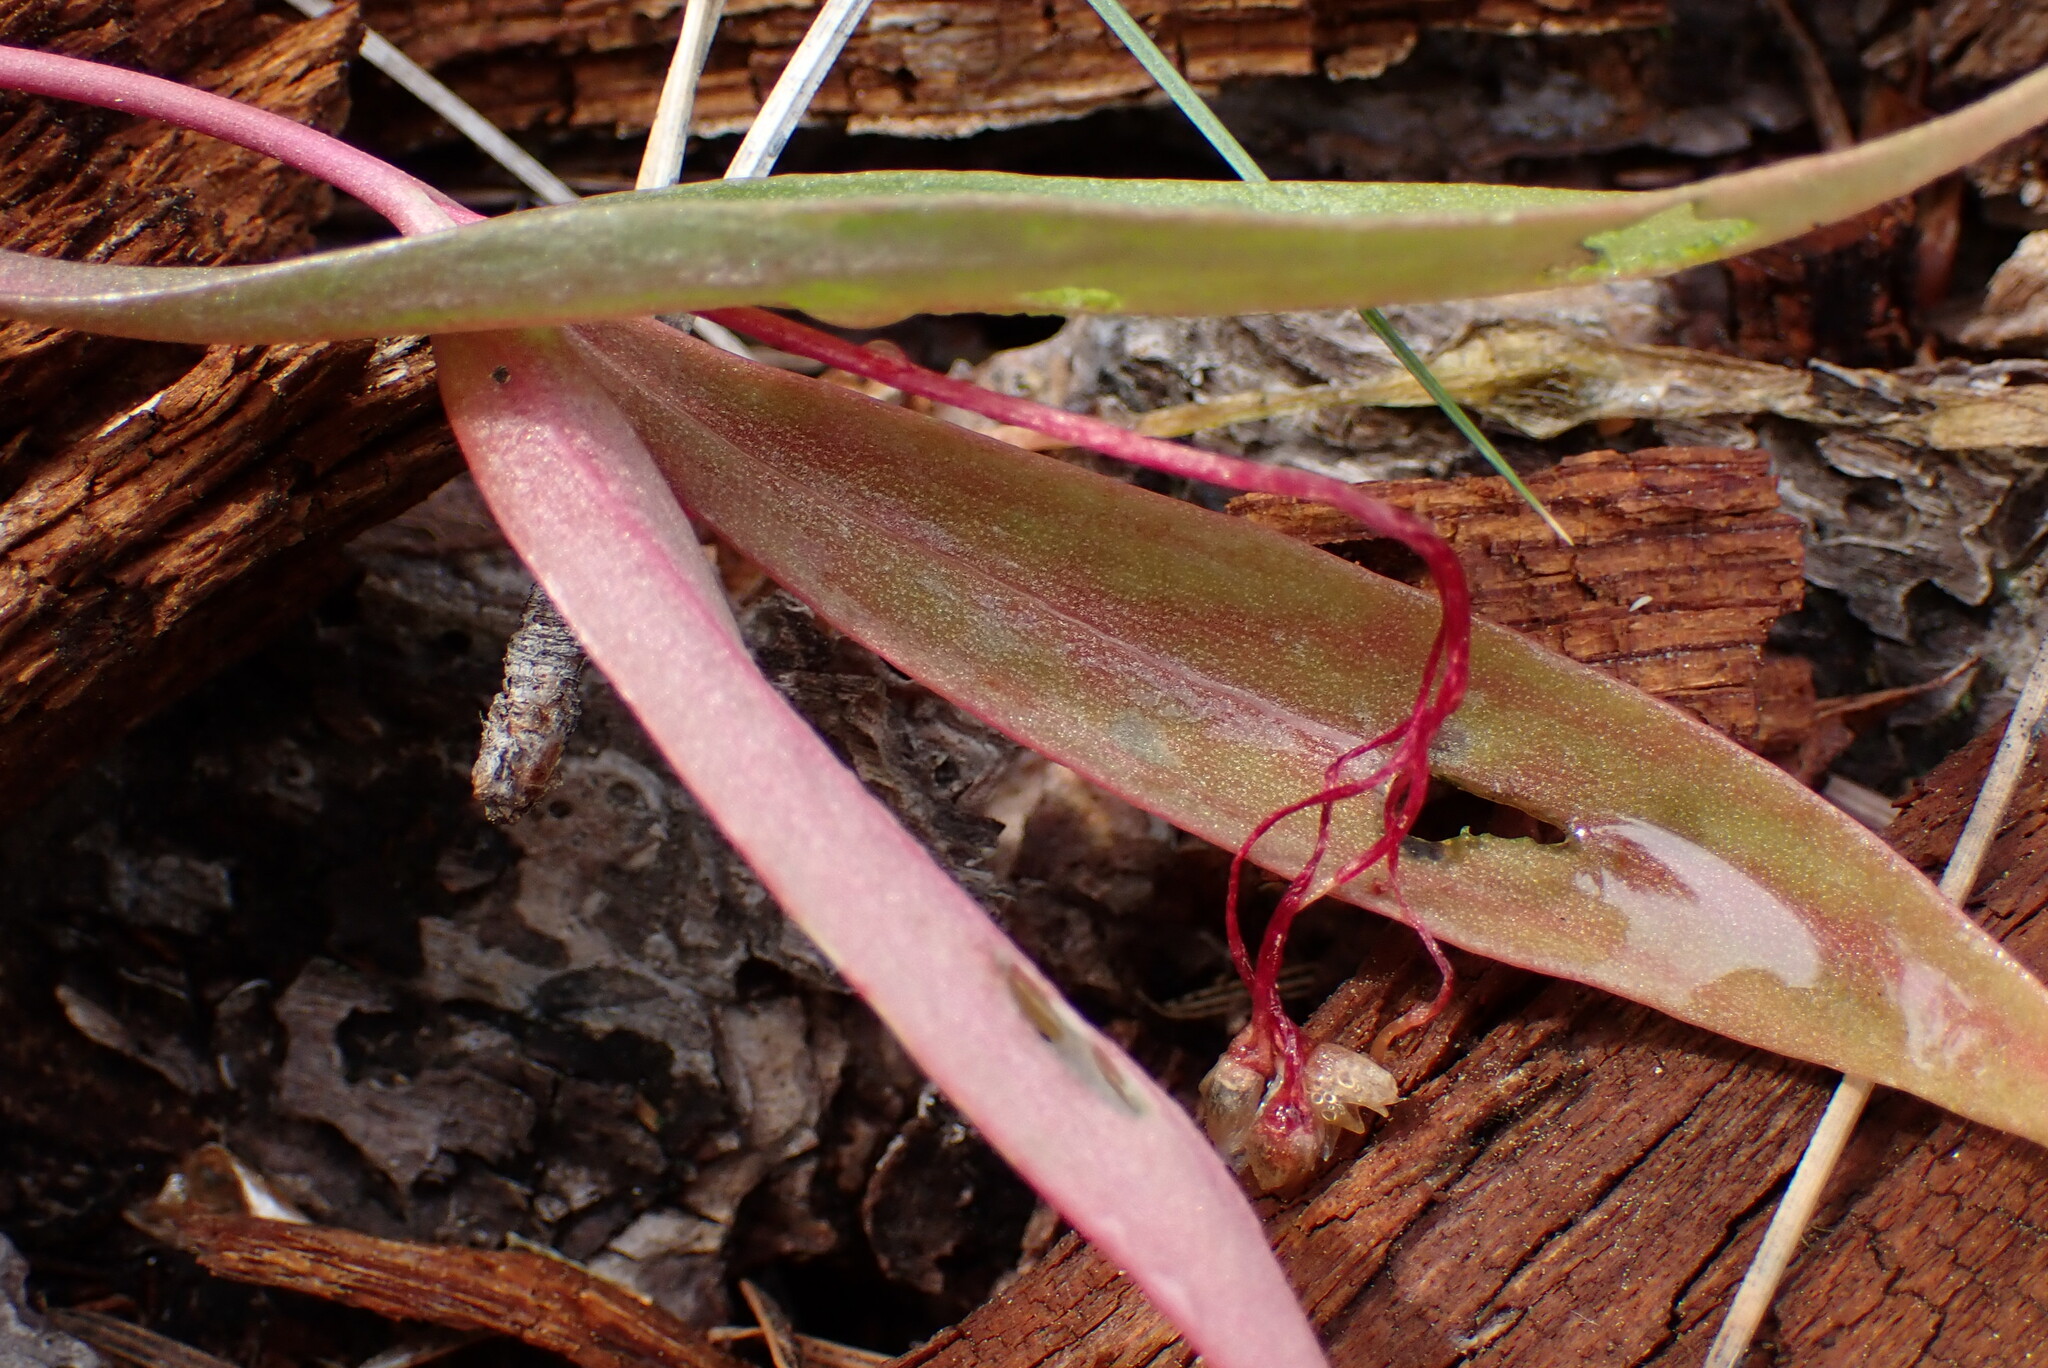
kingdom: Plantae
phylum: Tracheophyta
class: Magnoliopsida
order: Caryophyllales
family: Montiaceae
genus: Claytonia
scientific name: Claytonia lanceolata
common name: Western spring-beauty
